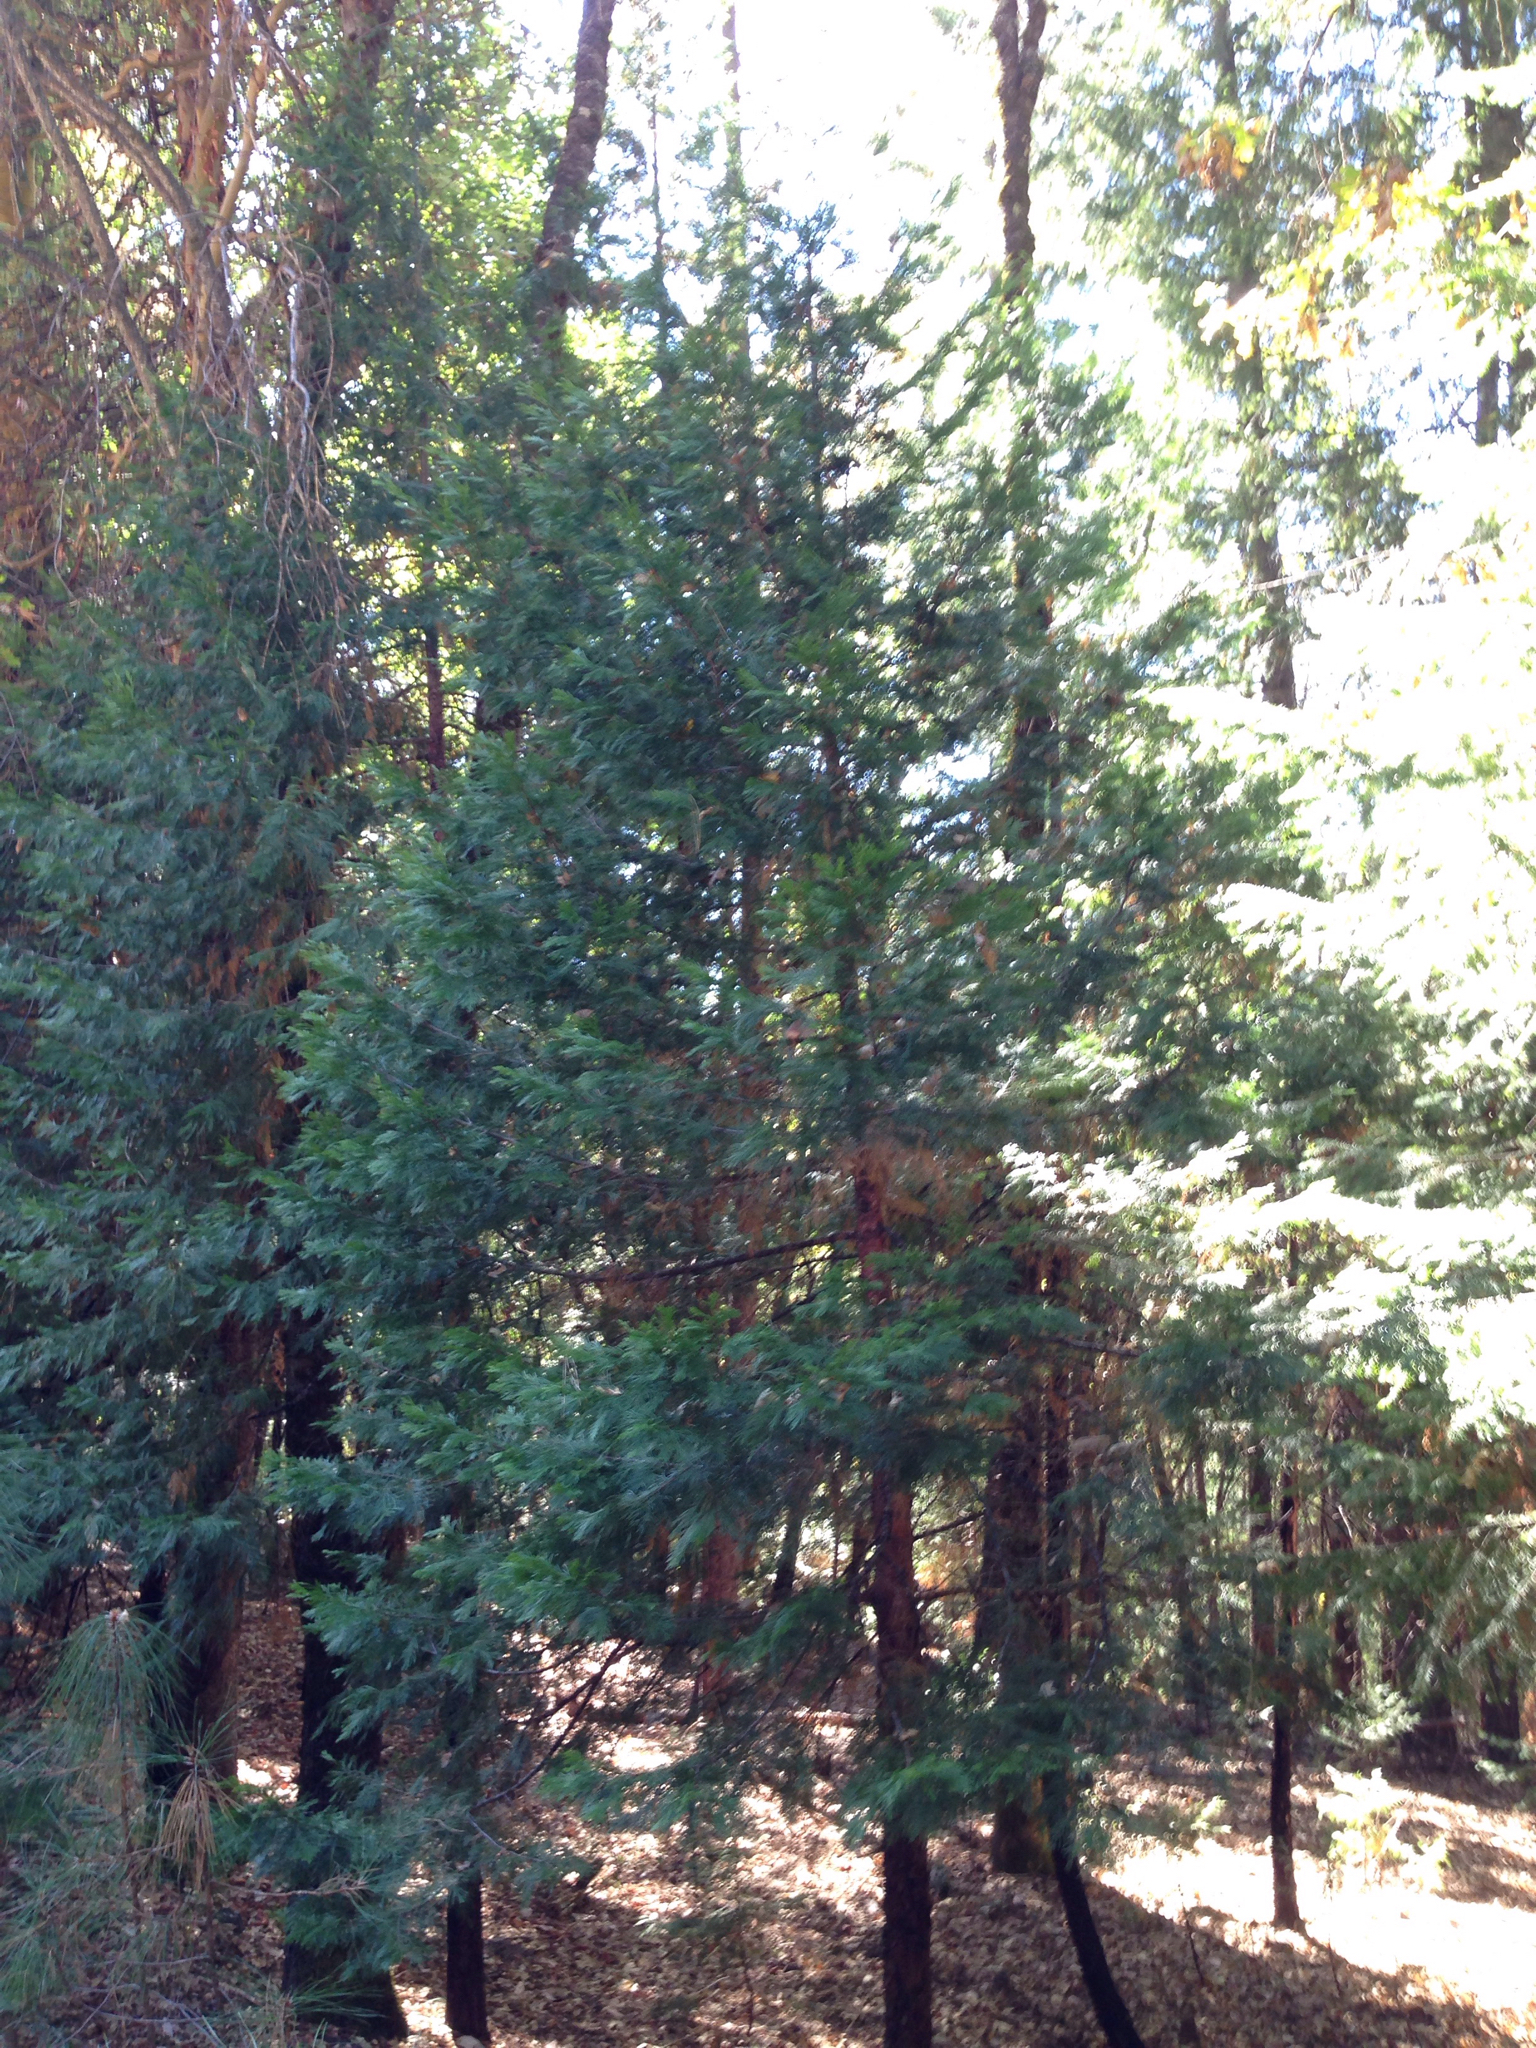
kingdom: Plantae
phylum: Tracheophyta
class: Pinopsida
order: Pinales
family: Cupressaceae
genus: Calocedrus
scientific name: Calocedrus decurrens
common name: Californian incense-cedar
